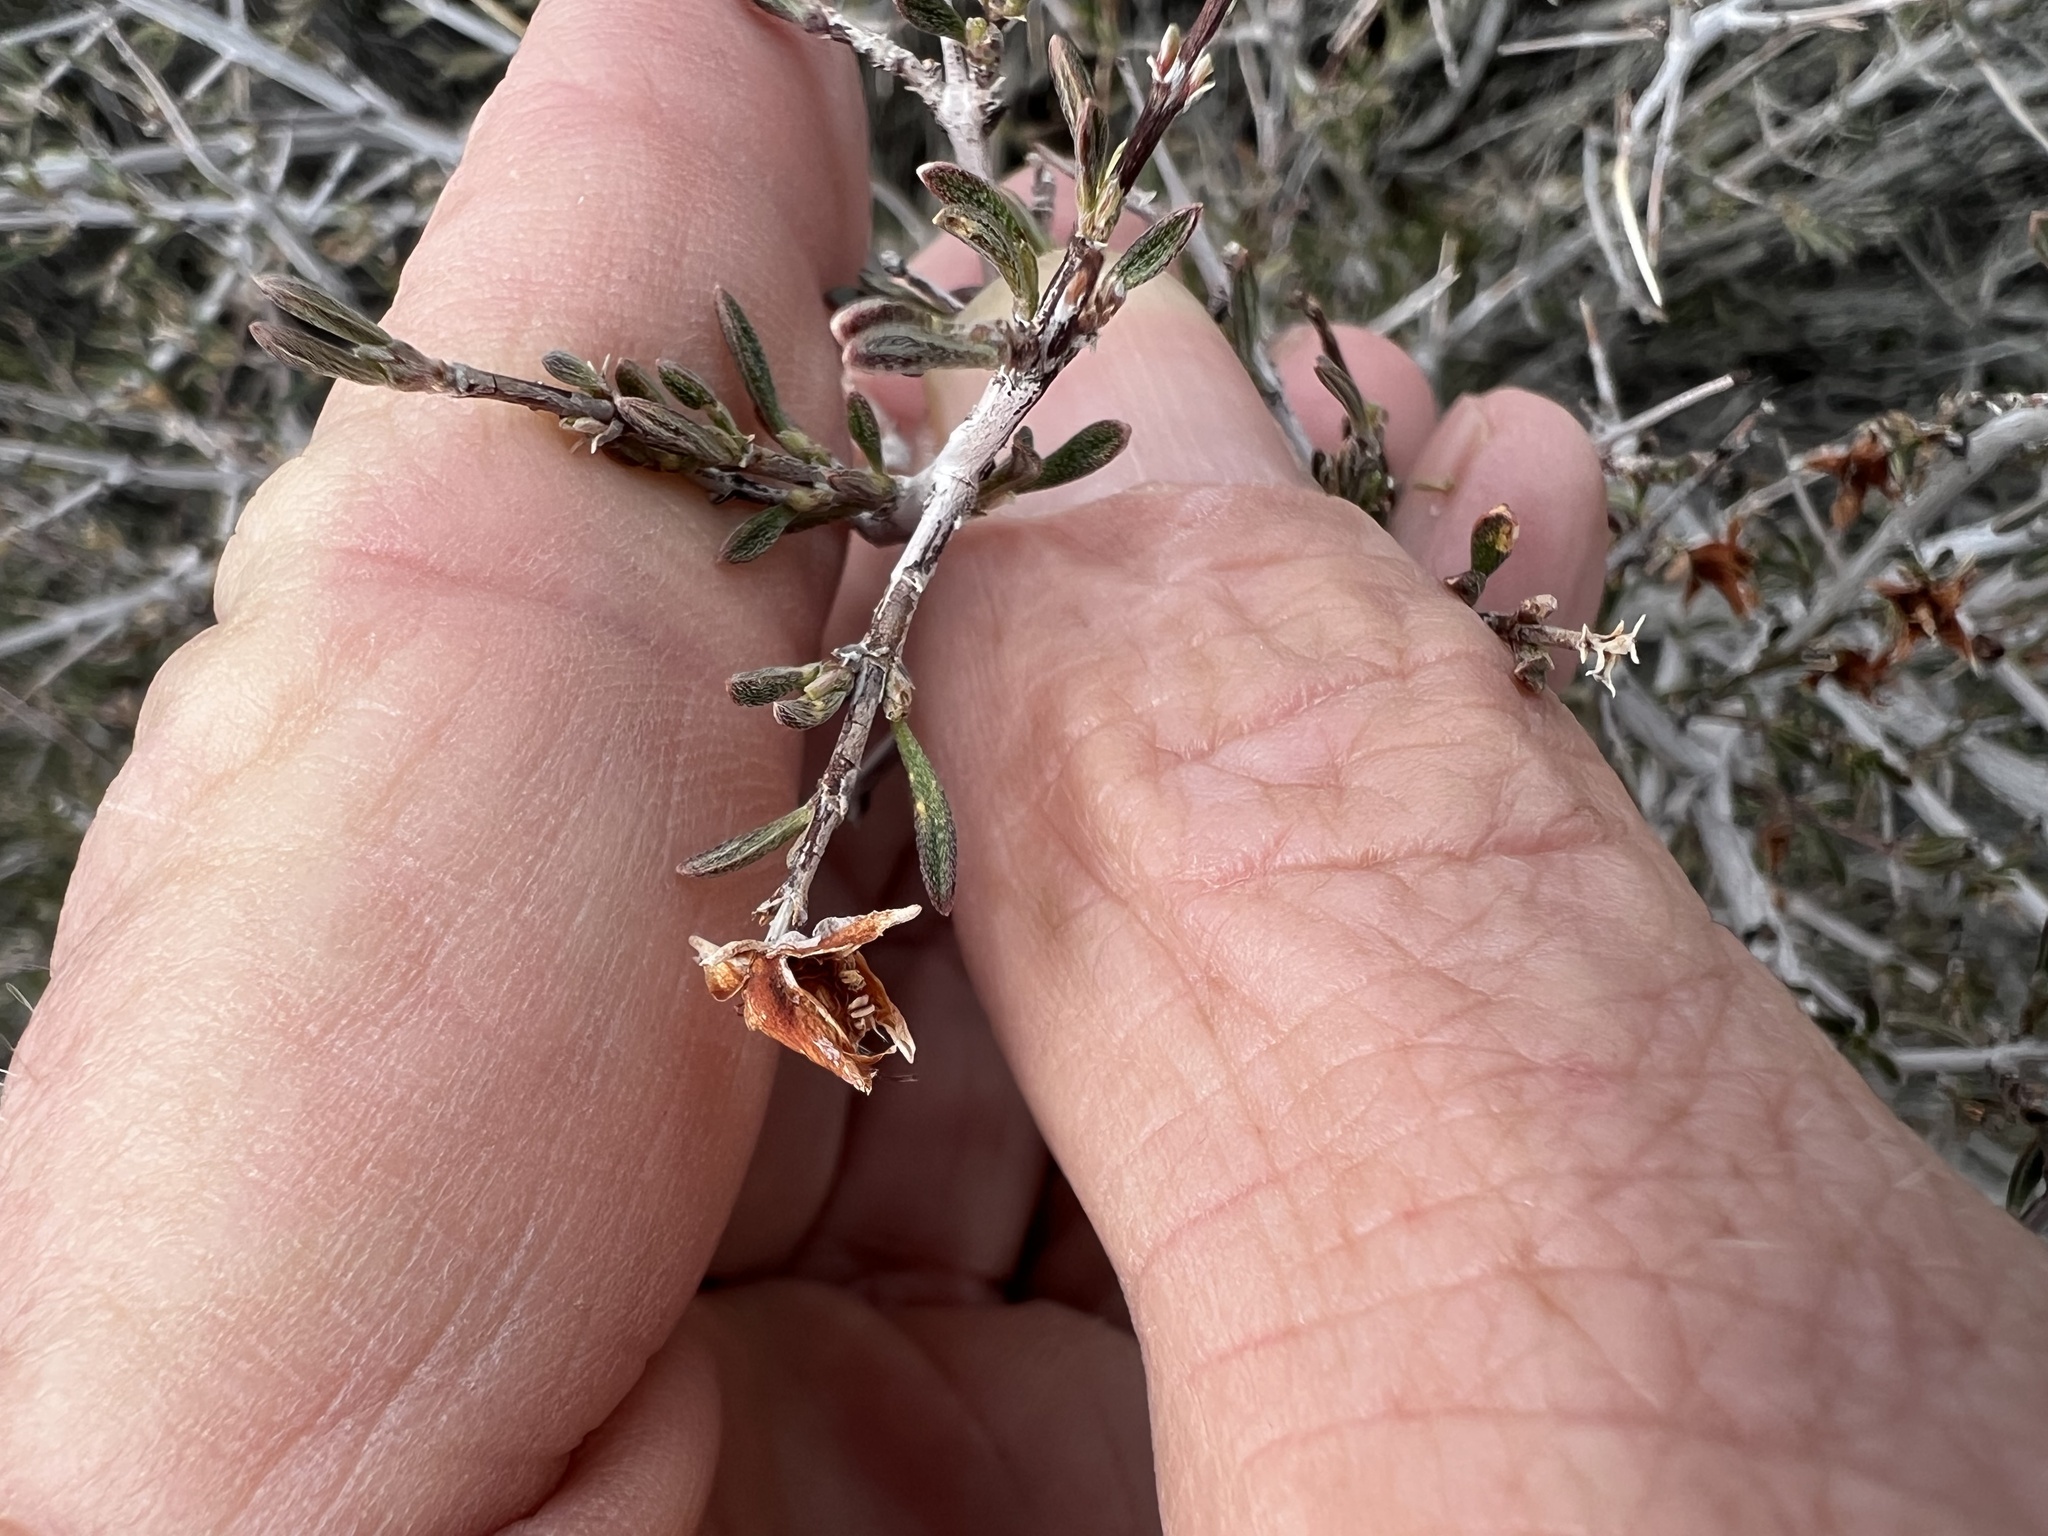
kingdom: Plantae
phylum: Tracheophyta
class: Magnoliopsida
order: Rosales
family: Rosaceae
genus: Coleogyne
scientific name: Coleogyne ramosissima
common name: Blackbrush
